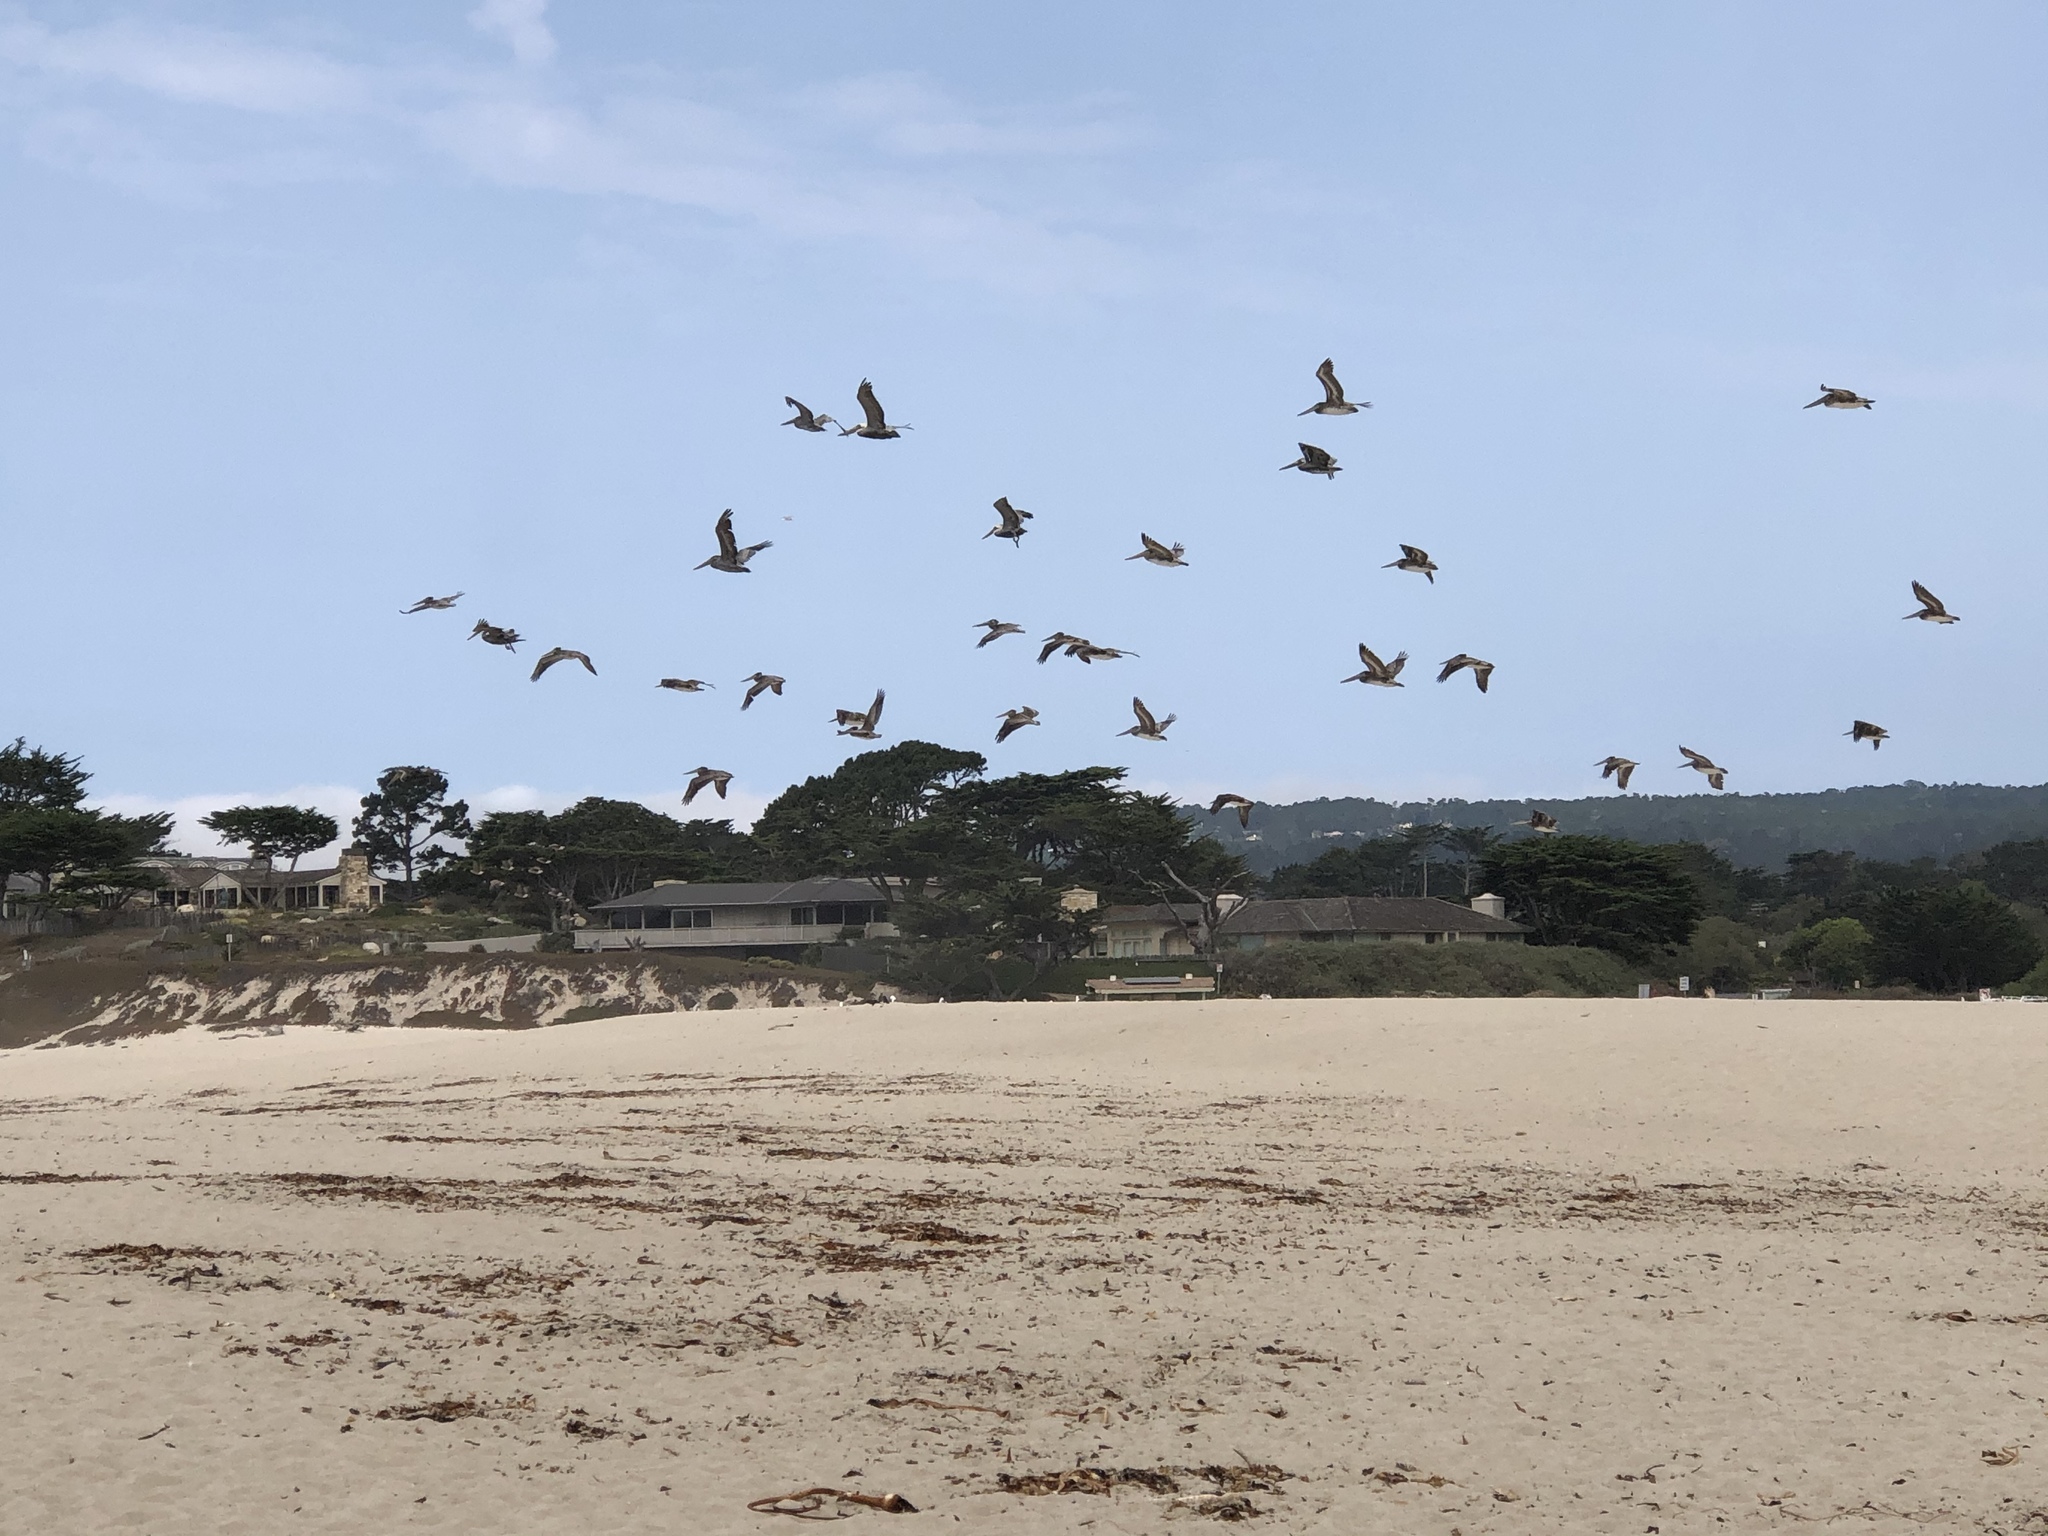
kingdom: Animalia
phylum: Chordata
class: Aves
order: Pelecaniformes
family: Pelecanidae
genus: Pelecanus
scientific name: Pelecanus occidentalis
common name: Brown pelican
